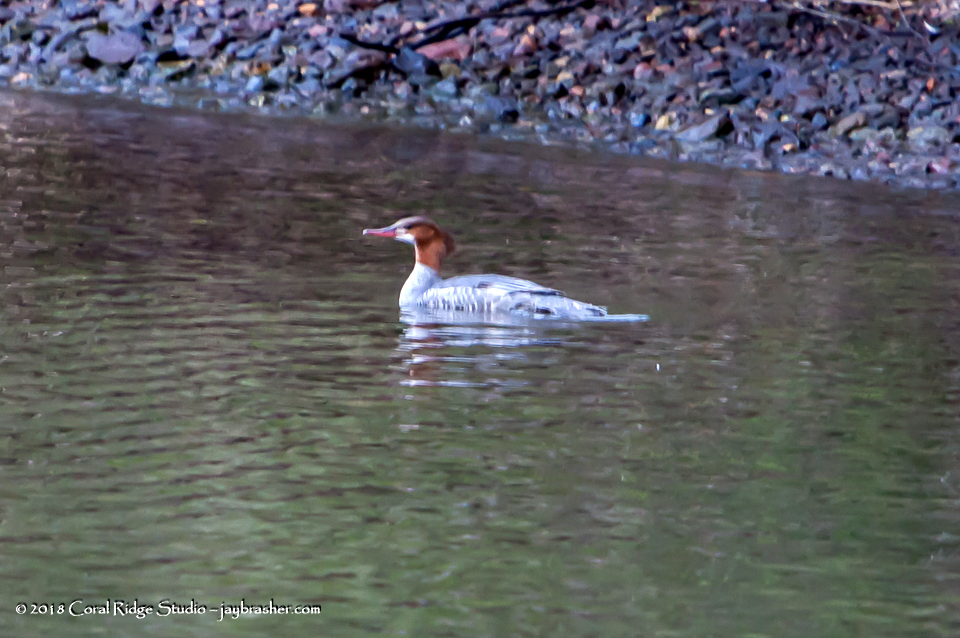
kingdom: Animalia
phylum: Chordata
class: Aves
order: Anseriformes
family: Anatidae
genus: Mergus
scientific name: Mergus merganser
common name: Common merganser
